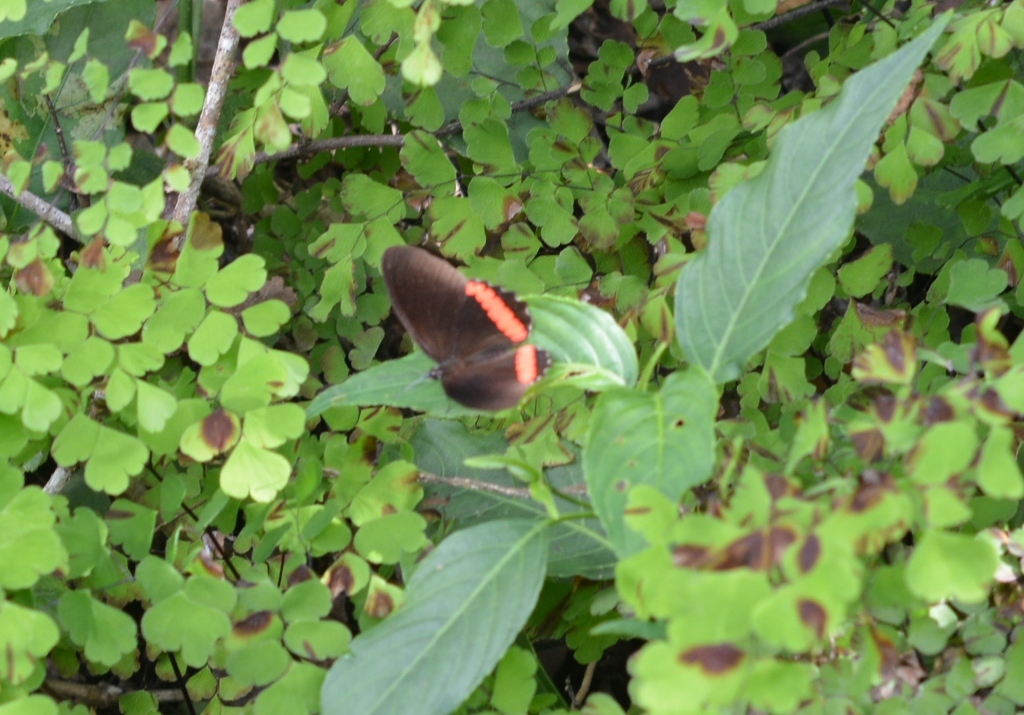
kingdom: Animalia
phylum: Arthropoda
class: Insecta
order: Lepidoptera
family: Nymphalidae
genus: Biblis
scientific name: Biblis aganisa
